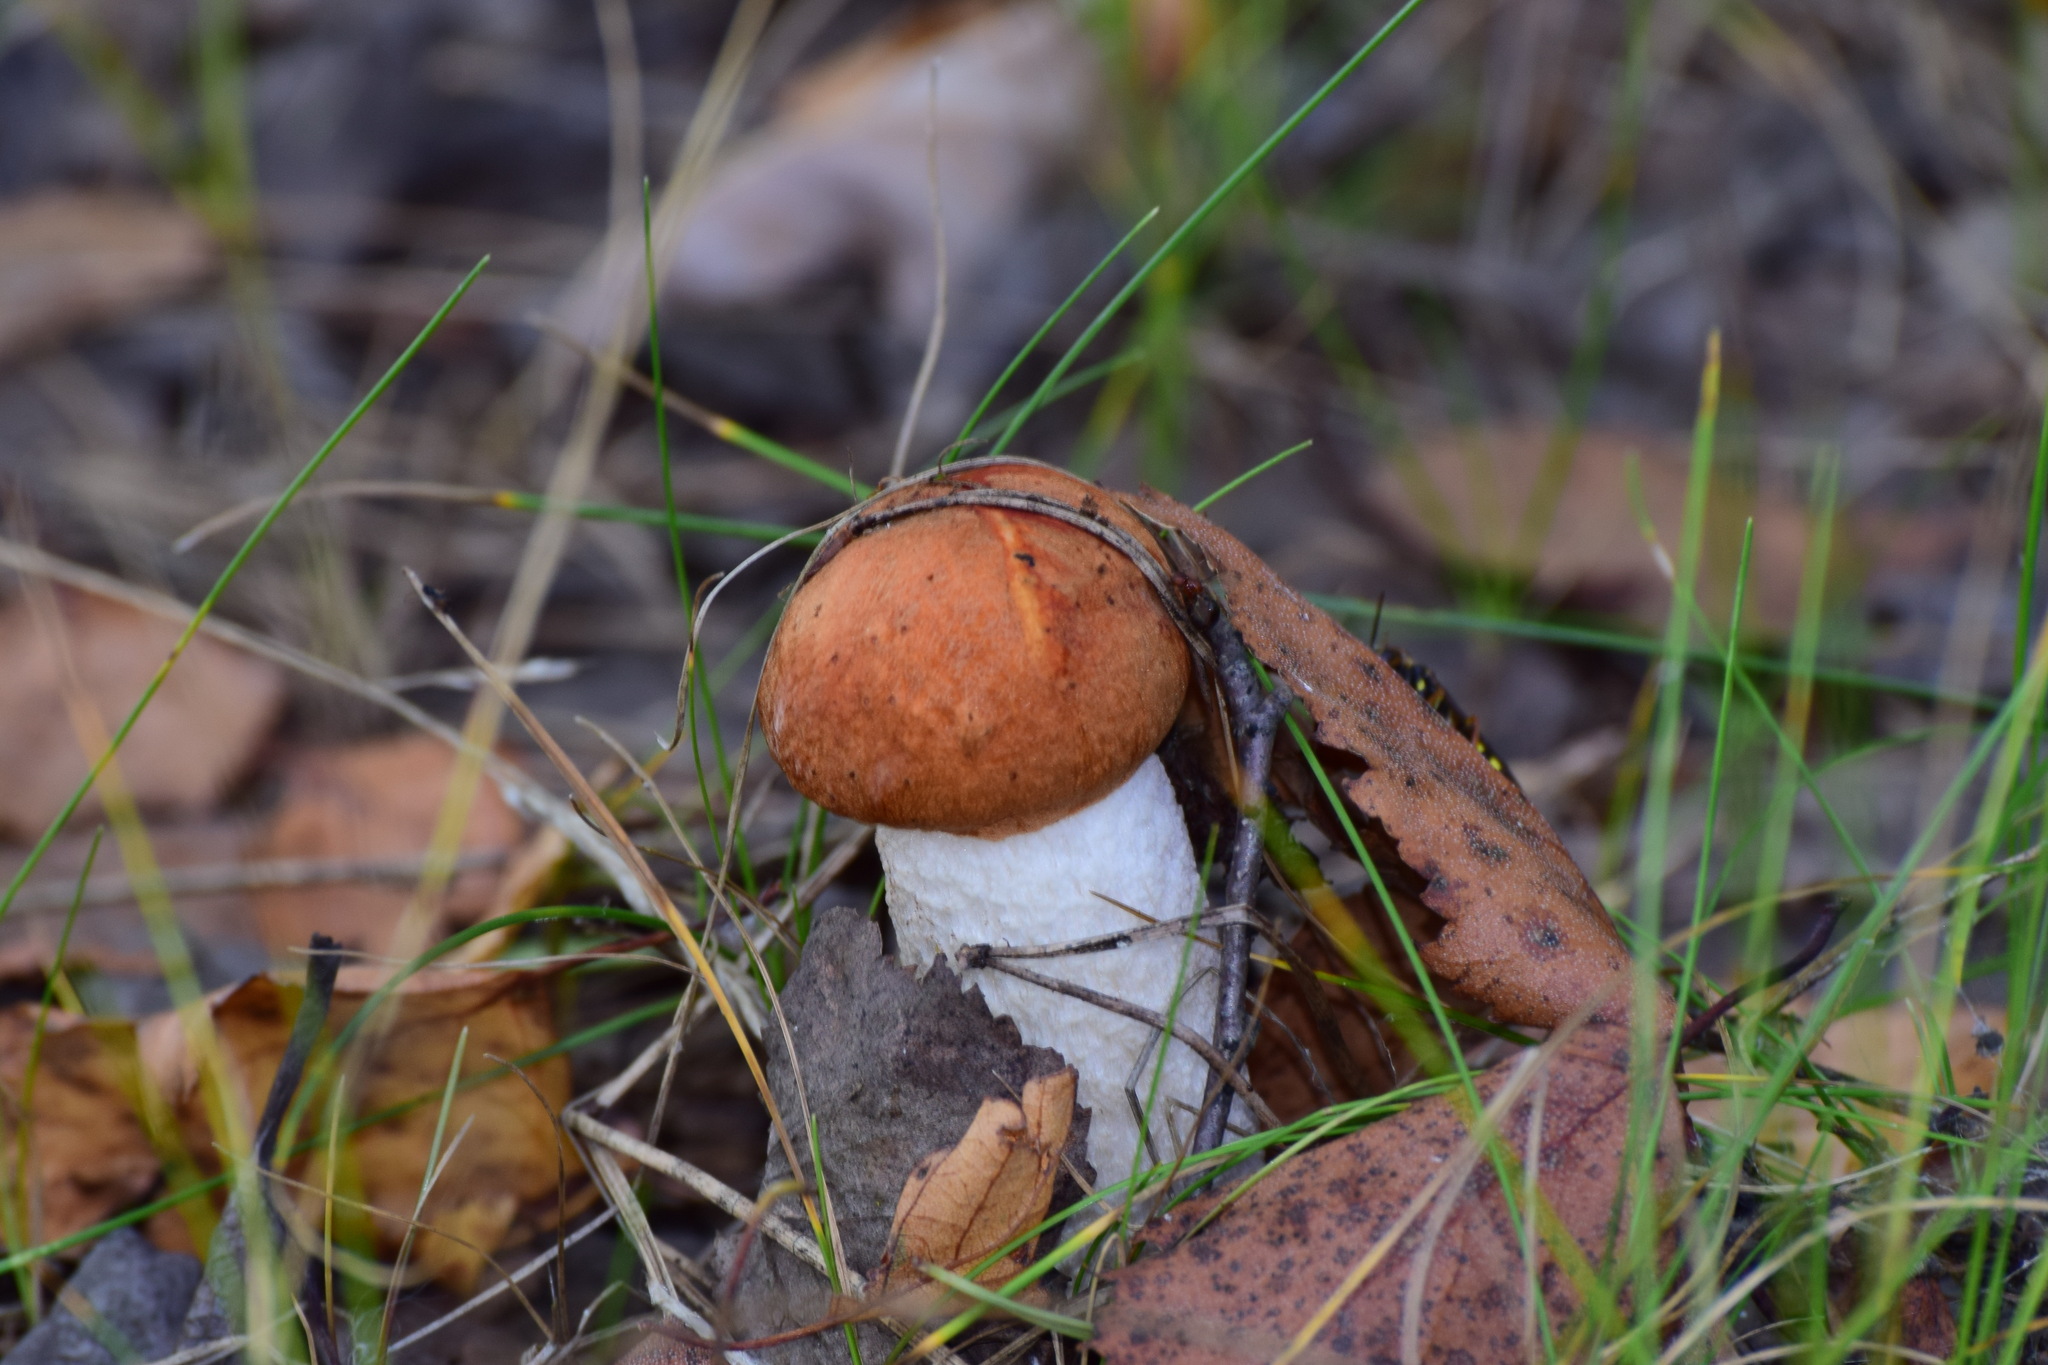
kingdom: Fungi
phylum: Basidiomycota
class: Agaricomycetes
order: Boletales
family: Boletaceae
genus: Leccinum
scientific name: Leccinum albostipitatum
